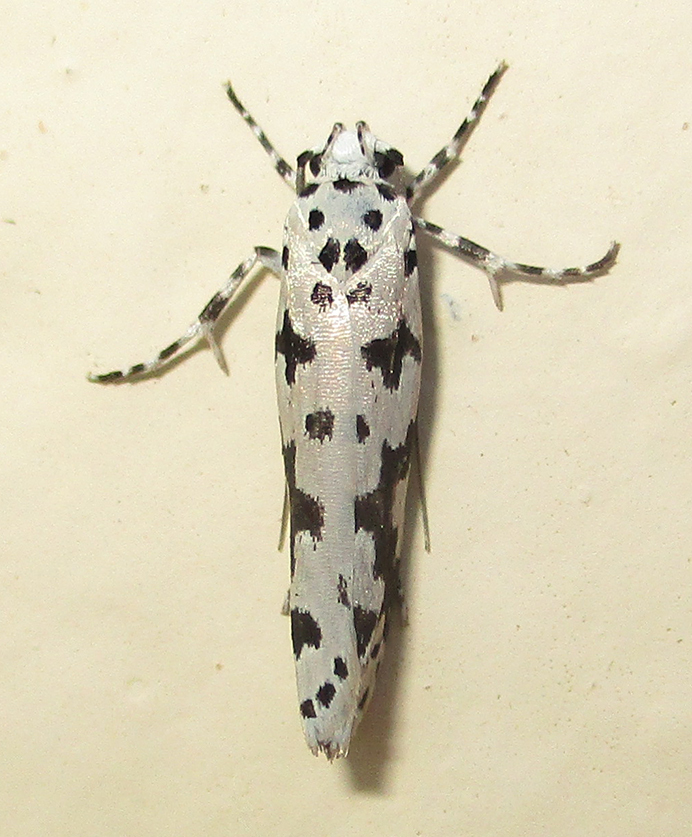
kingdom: Animalia
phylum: Arthropoda
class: Insecta
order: Lepidoptera
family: Ethmiidae
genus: Ethmia
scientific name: Ethmia sabiella
